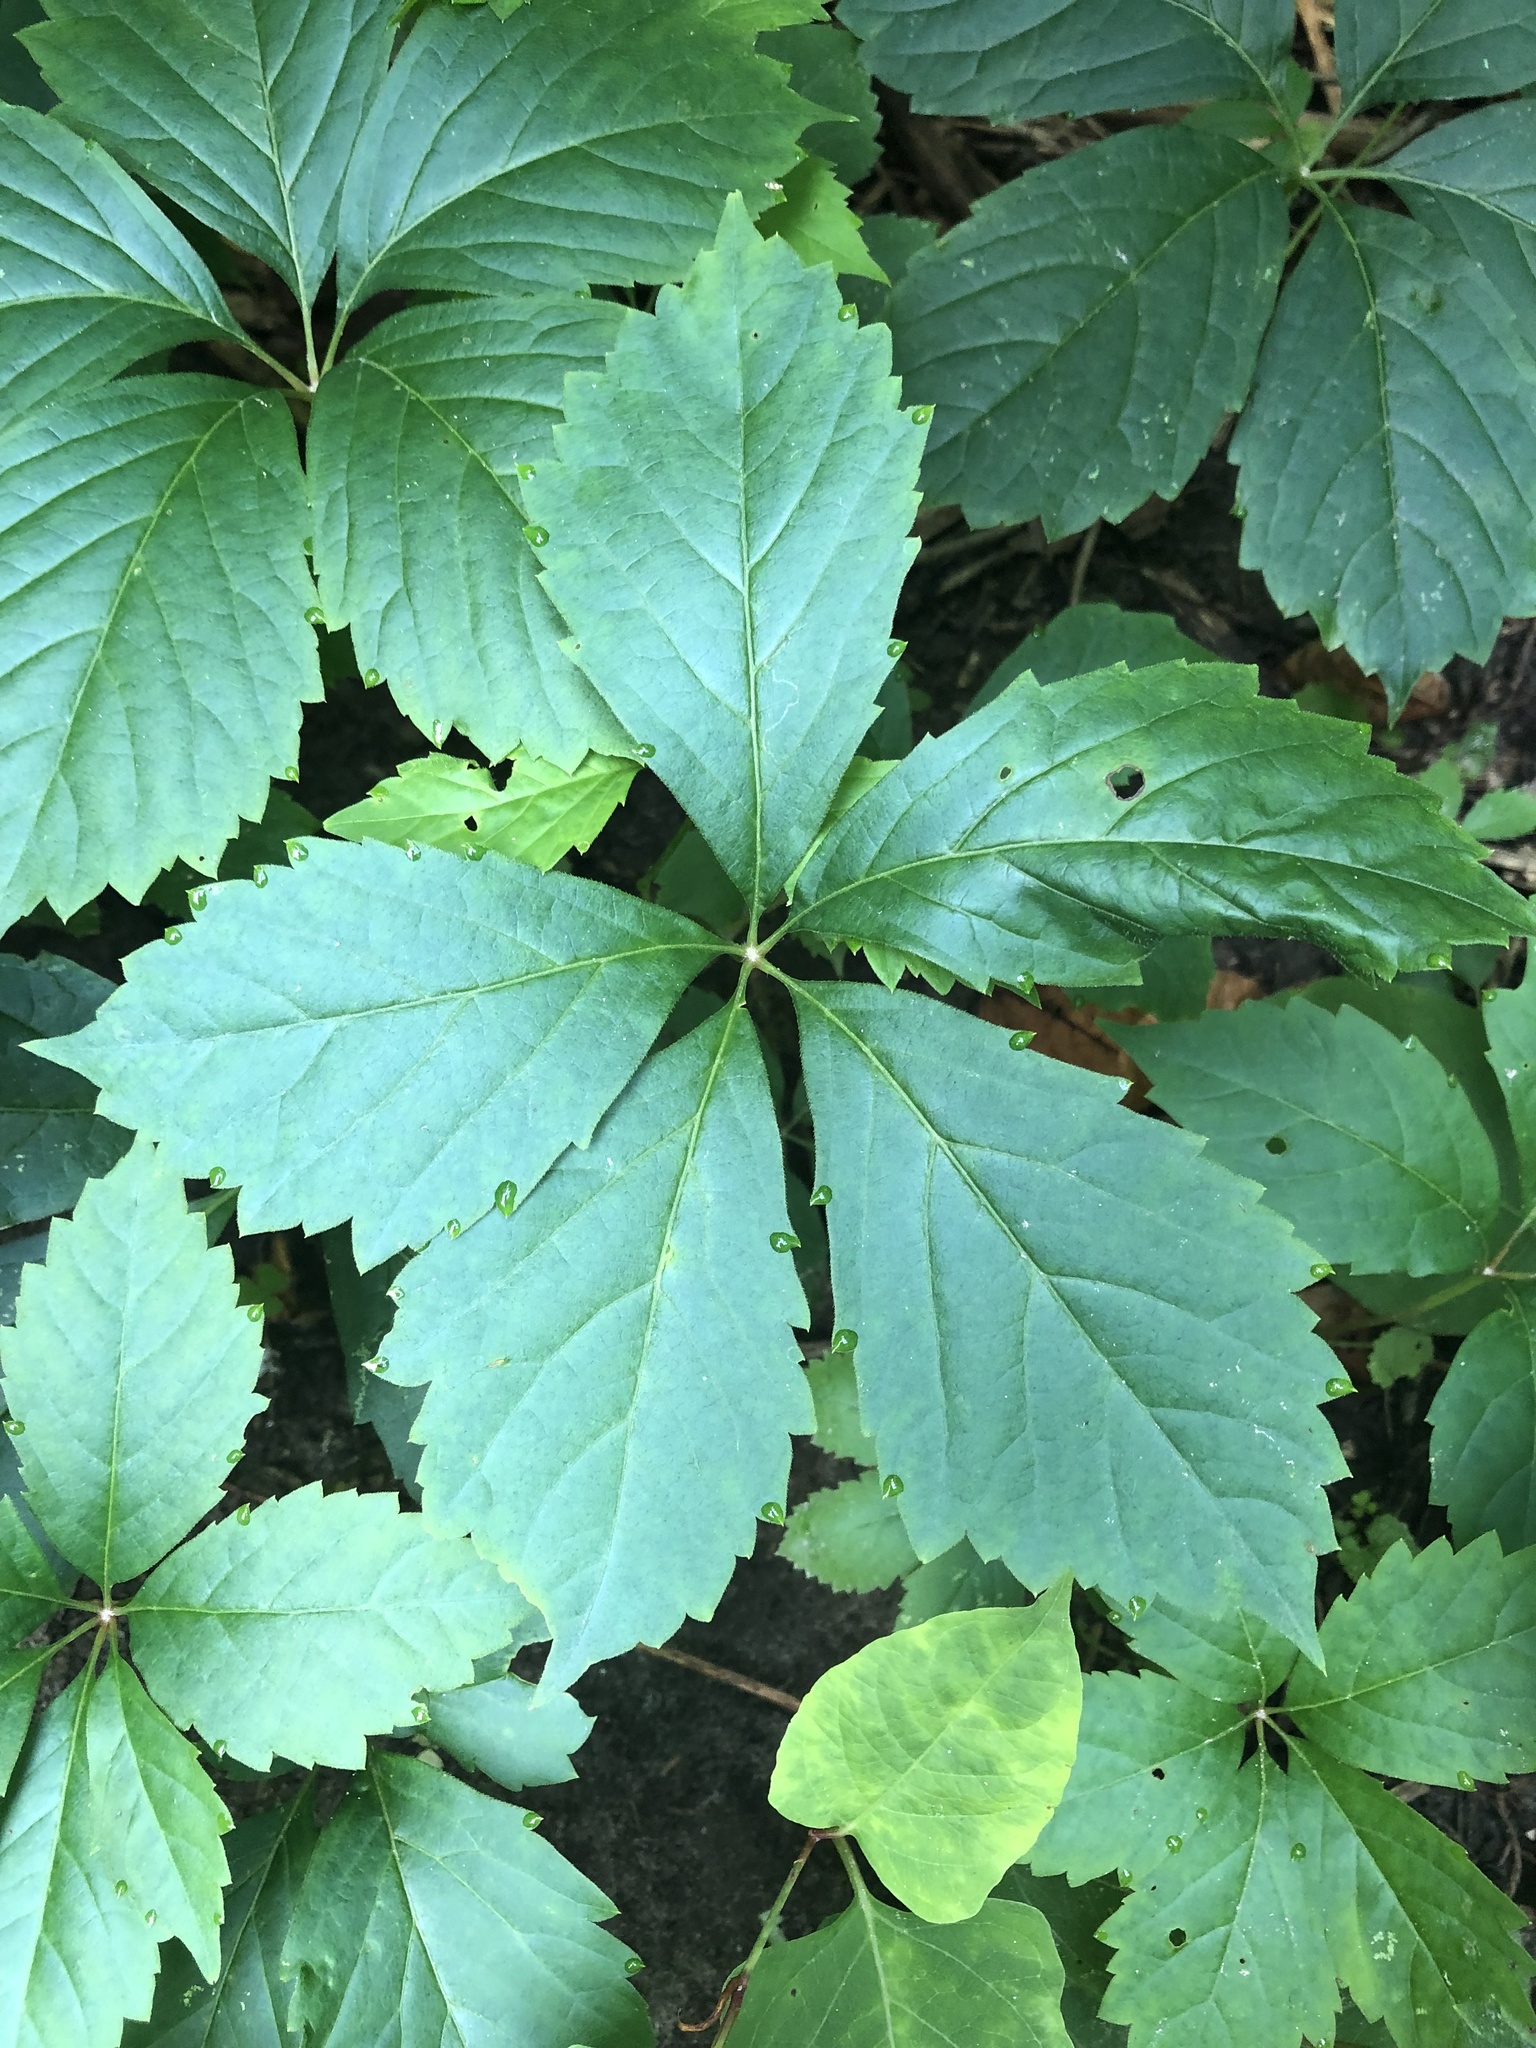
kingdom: Plantae
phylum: Tracheophyta
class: Magnoliopsida
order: Vitales
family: Vitaceae
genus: Parthenocissus
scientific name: Parthenocissus inserta
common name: False virginia-creeper
